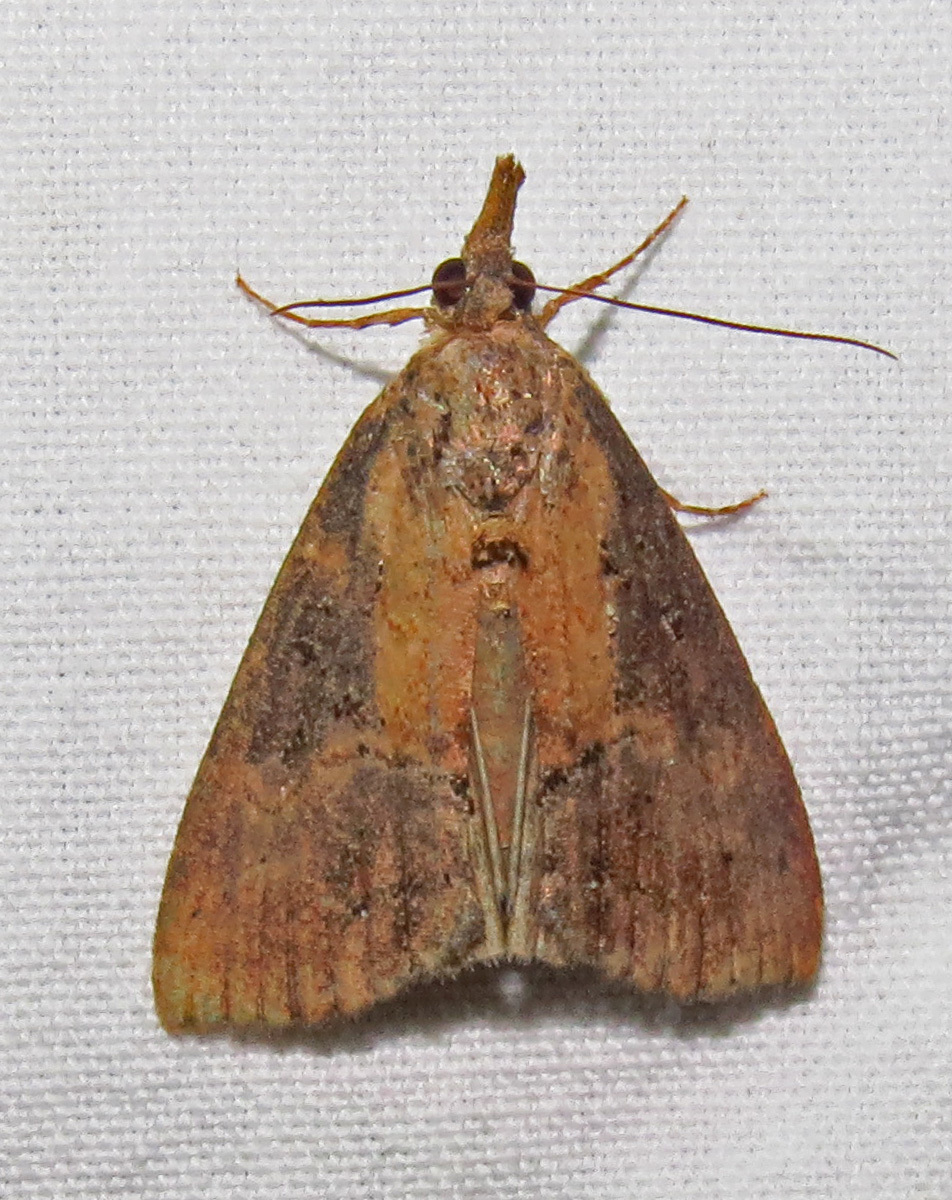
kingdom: Animalia
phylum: Arthropoda
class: Insecta
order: Lepidoptera
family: Erebidae
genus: Hypena
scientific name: Hypena scabra
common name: Green cloverworm
